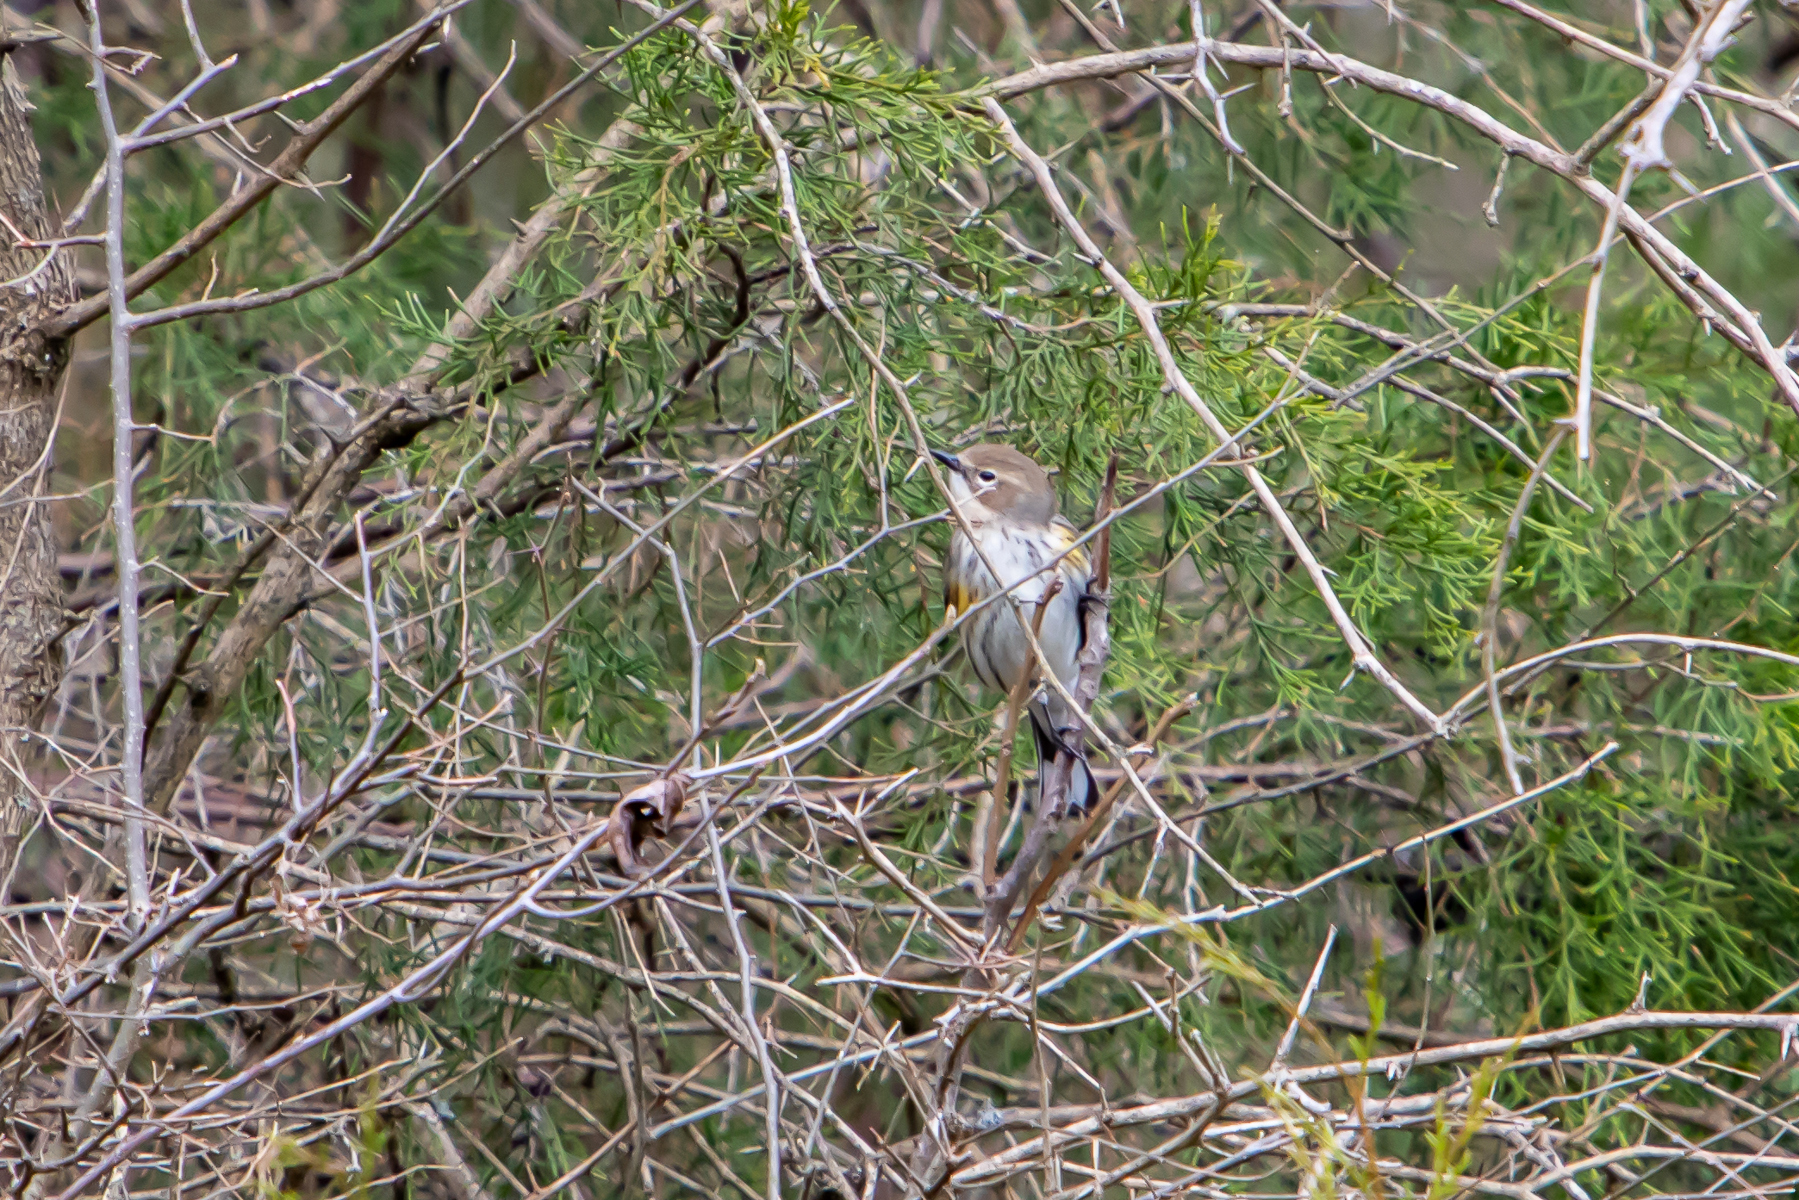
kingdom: Animalia
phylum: Chordata
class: Aves
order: Passeriformes
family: Parulidae
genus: Setophaga
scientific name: Setophaga coronata
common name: Myrtle warbler
